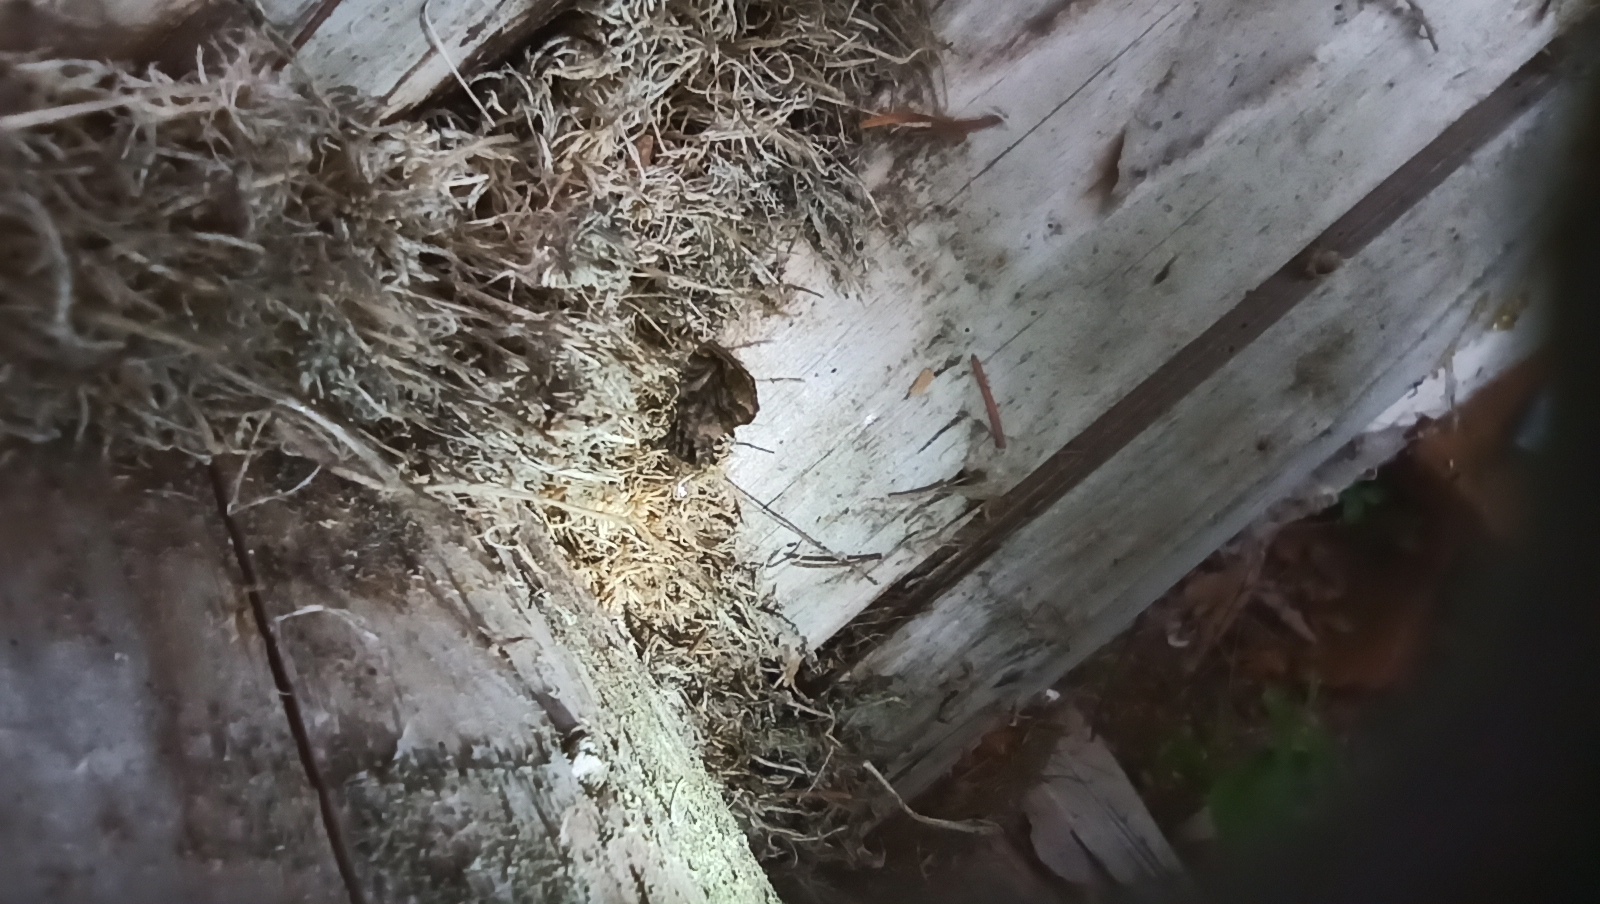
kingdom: Animalia
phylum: Arthropoda
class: Insecta
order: Lepidoptera
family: Noctuidae
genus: Lamprotes
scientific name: Lamprotes caureum
